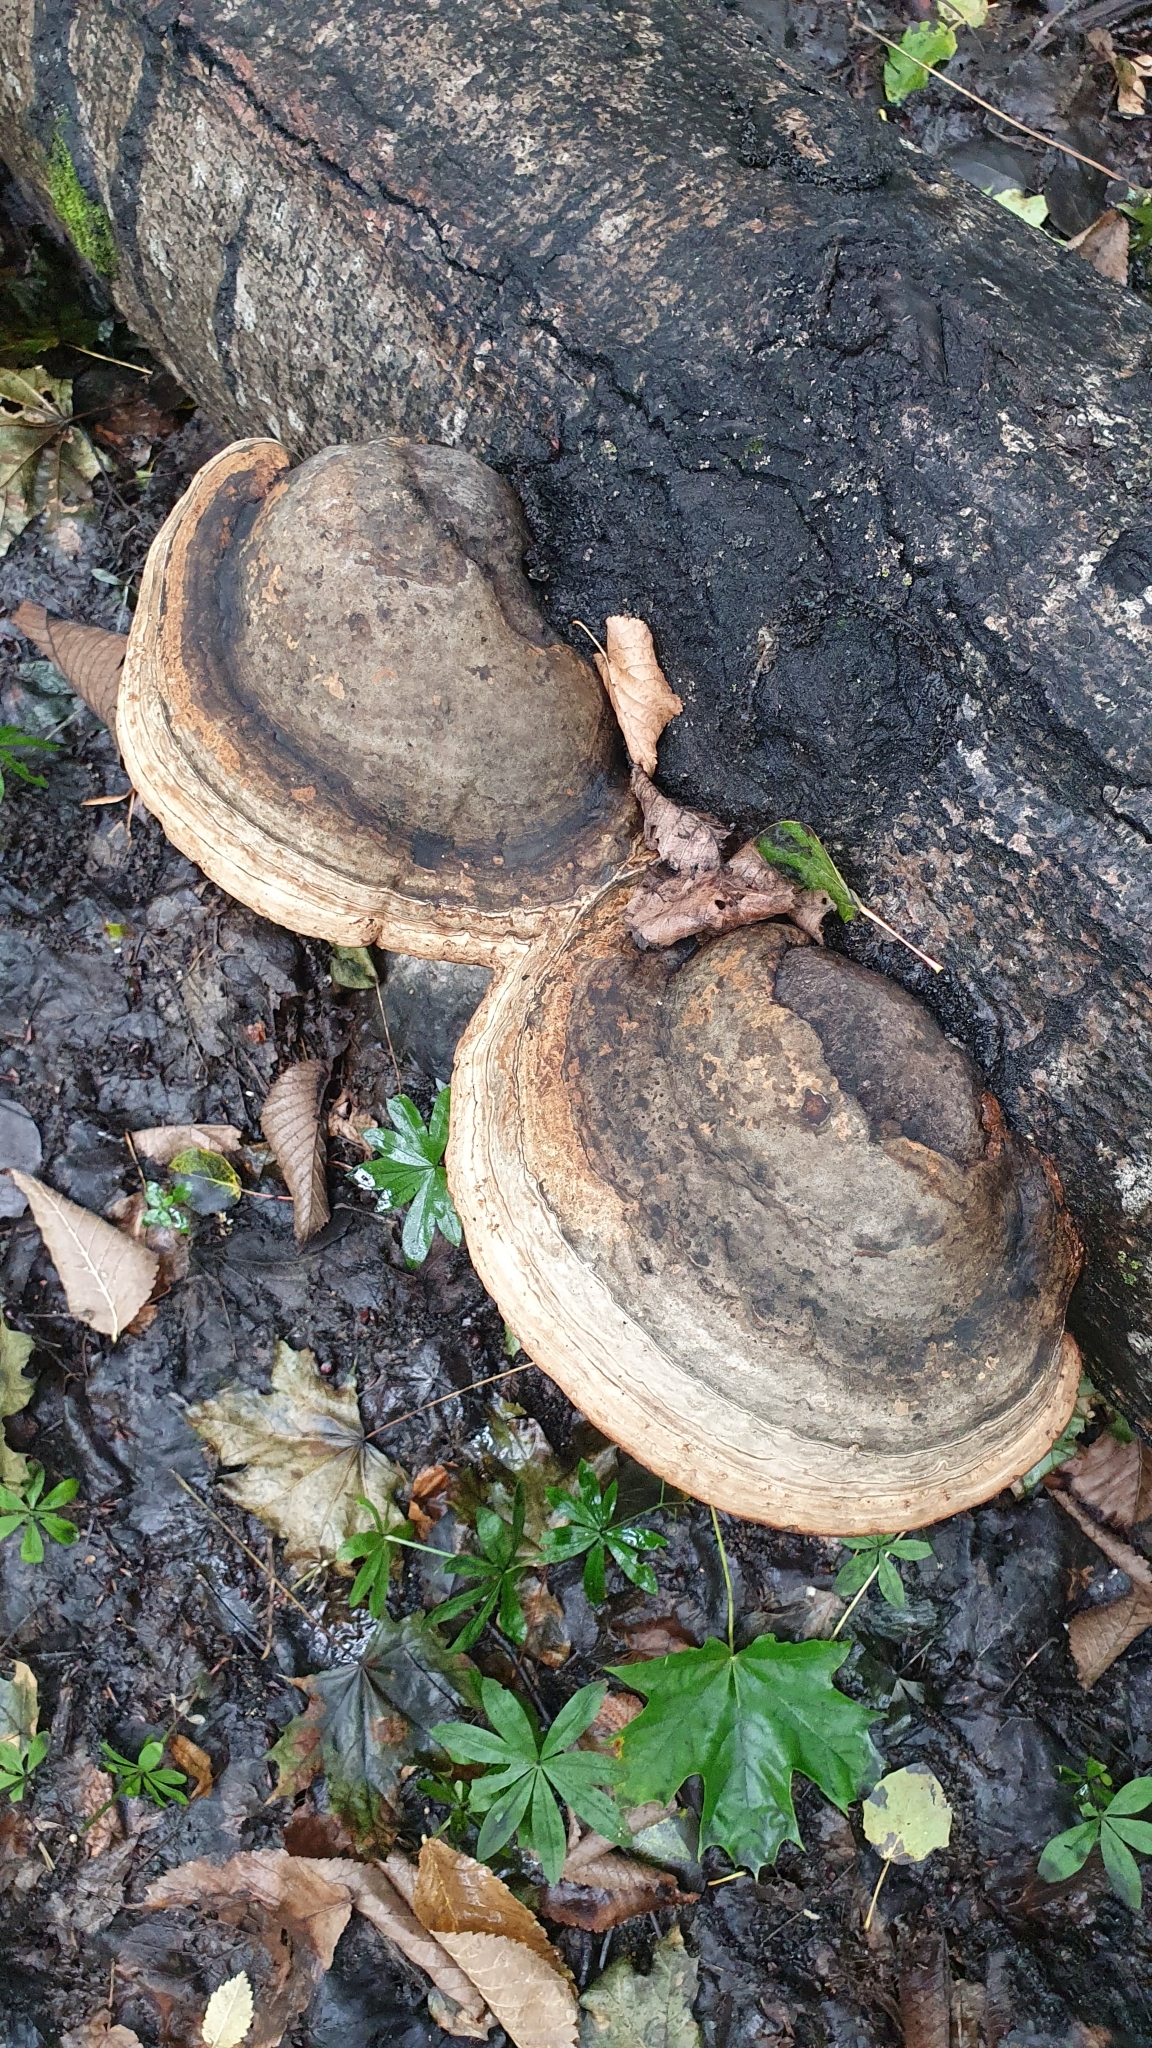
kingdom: Fungi
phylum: Basidiomycota
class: Agaricomycetes
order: Polyporales
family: Fomitopsidaceae
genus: Fomitopsis
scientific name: Fomitopsis pinicola
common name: Red-belted bracket
